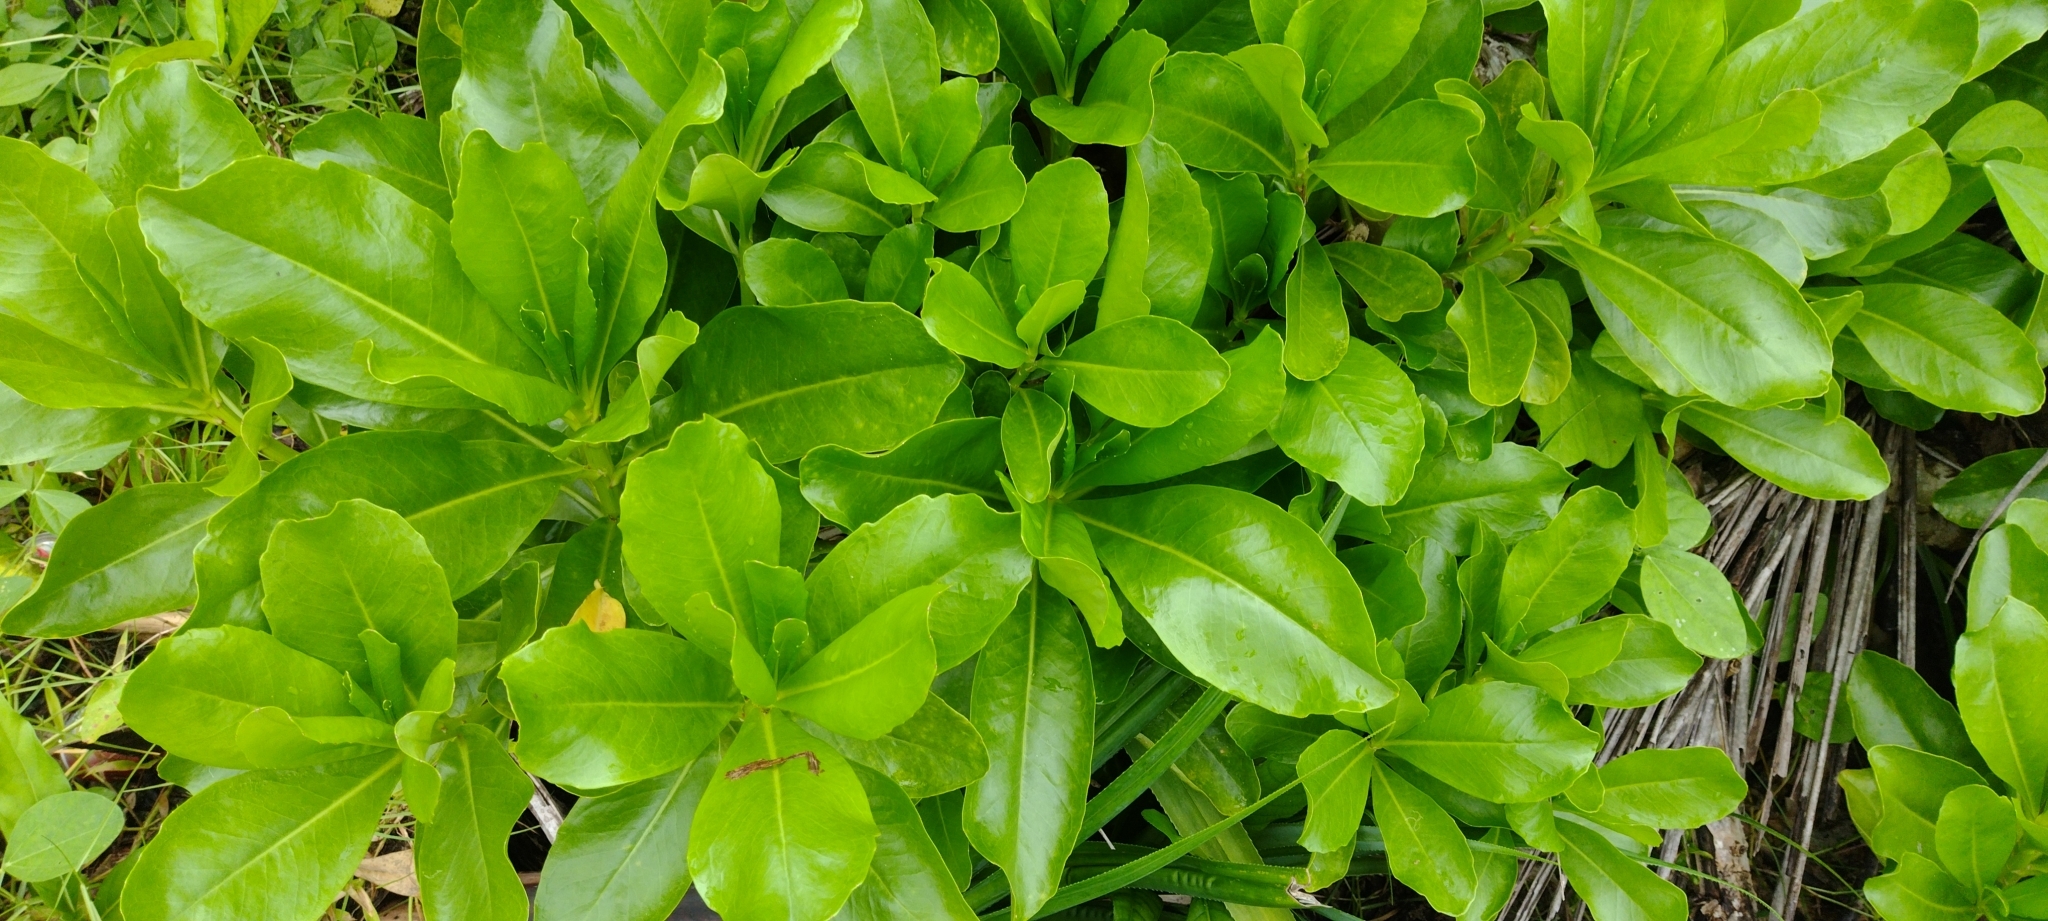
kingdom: Plantae
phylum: Tracheophyta
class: Magnoliopsida
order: Asterales
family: Goodeniaceae
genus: Scaevola
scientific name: Scaevola taccada
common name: Sea lettucetree
